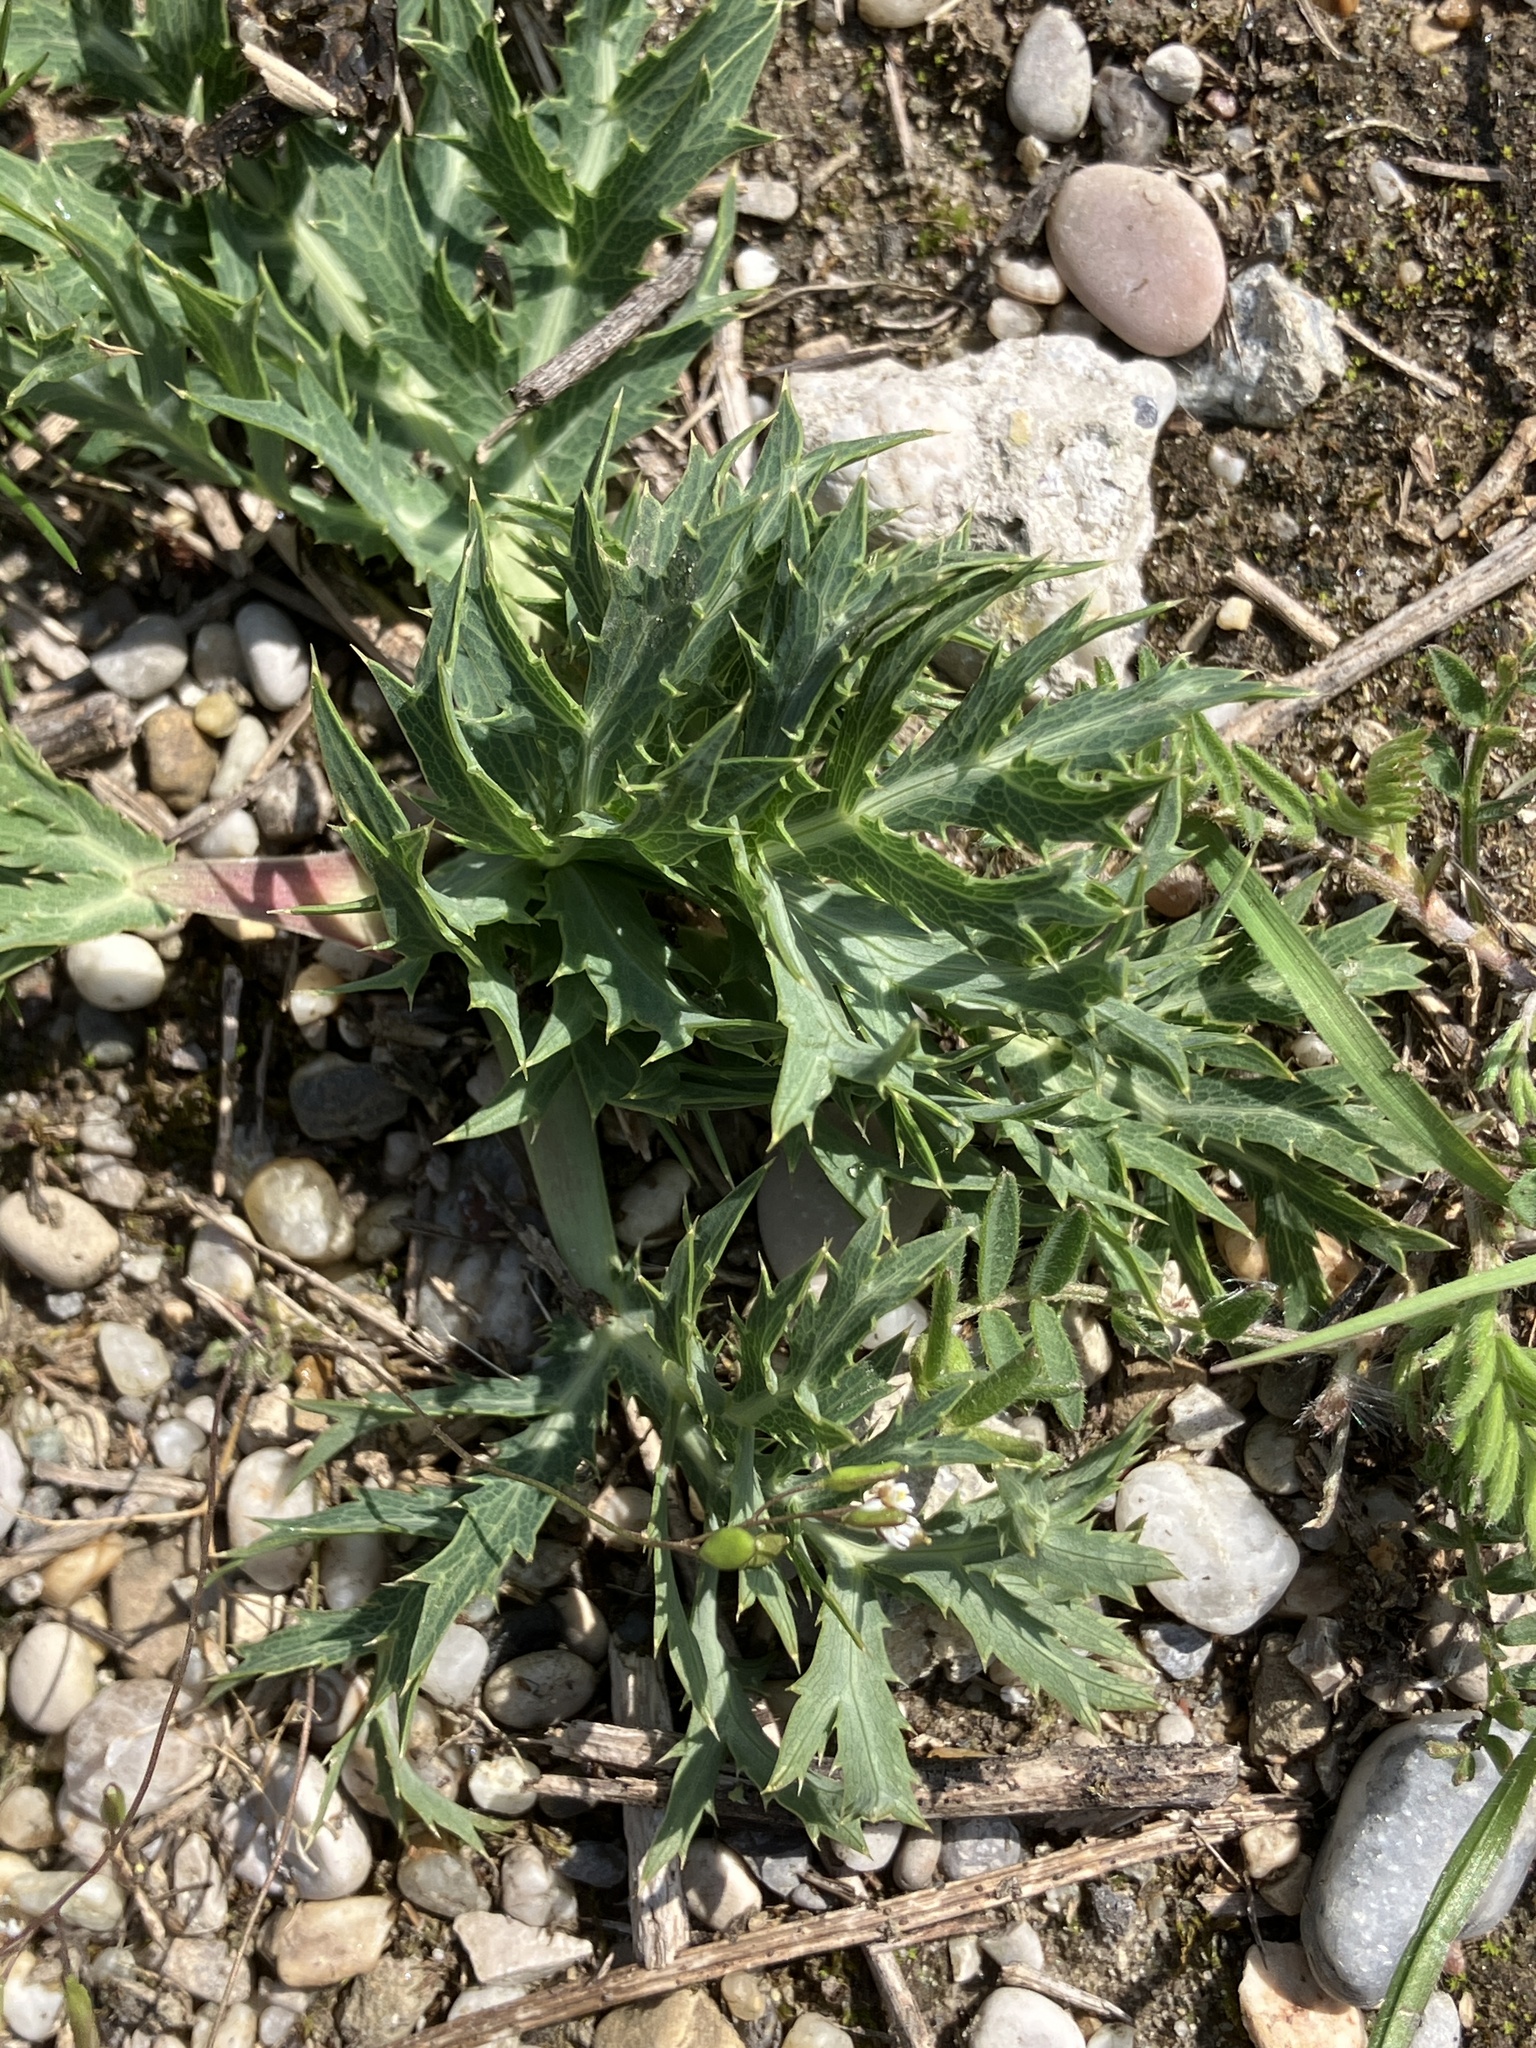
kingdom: Plantae
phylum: Tracheophyta
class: Magnoliopsida
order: Apiales
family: Apiaceae
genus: Eryngium
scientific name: Eryngium campestre
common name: Field eryngo
